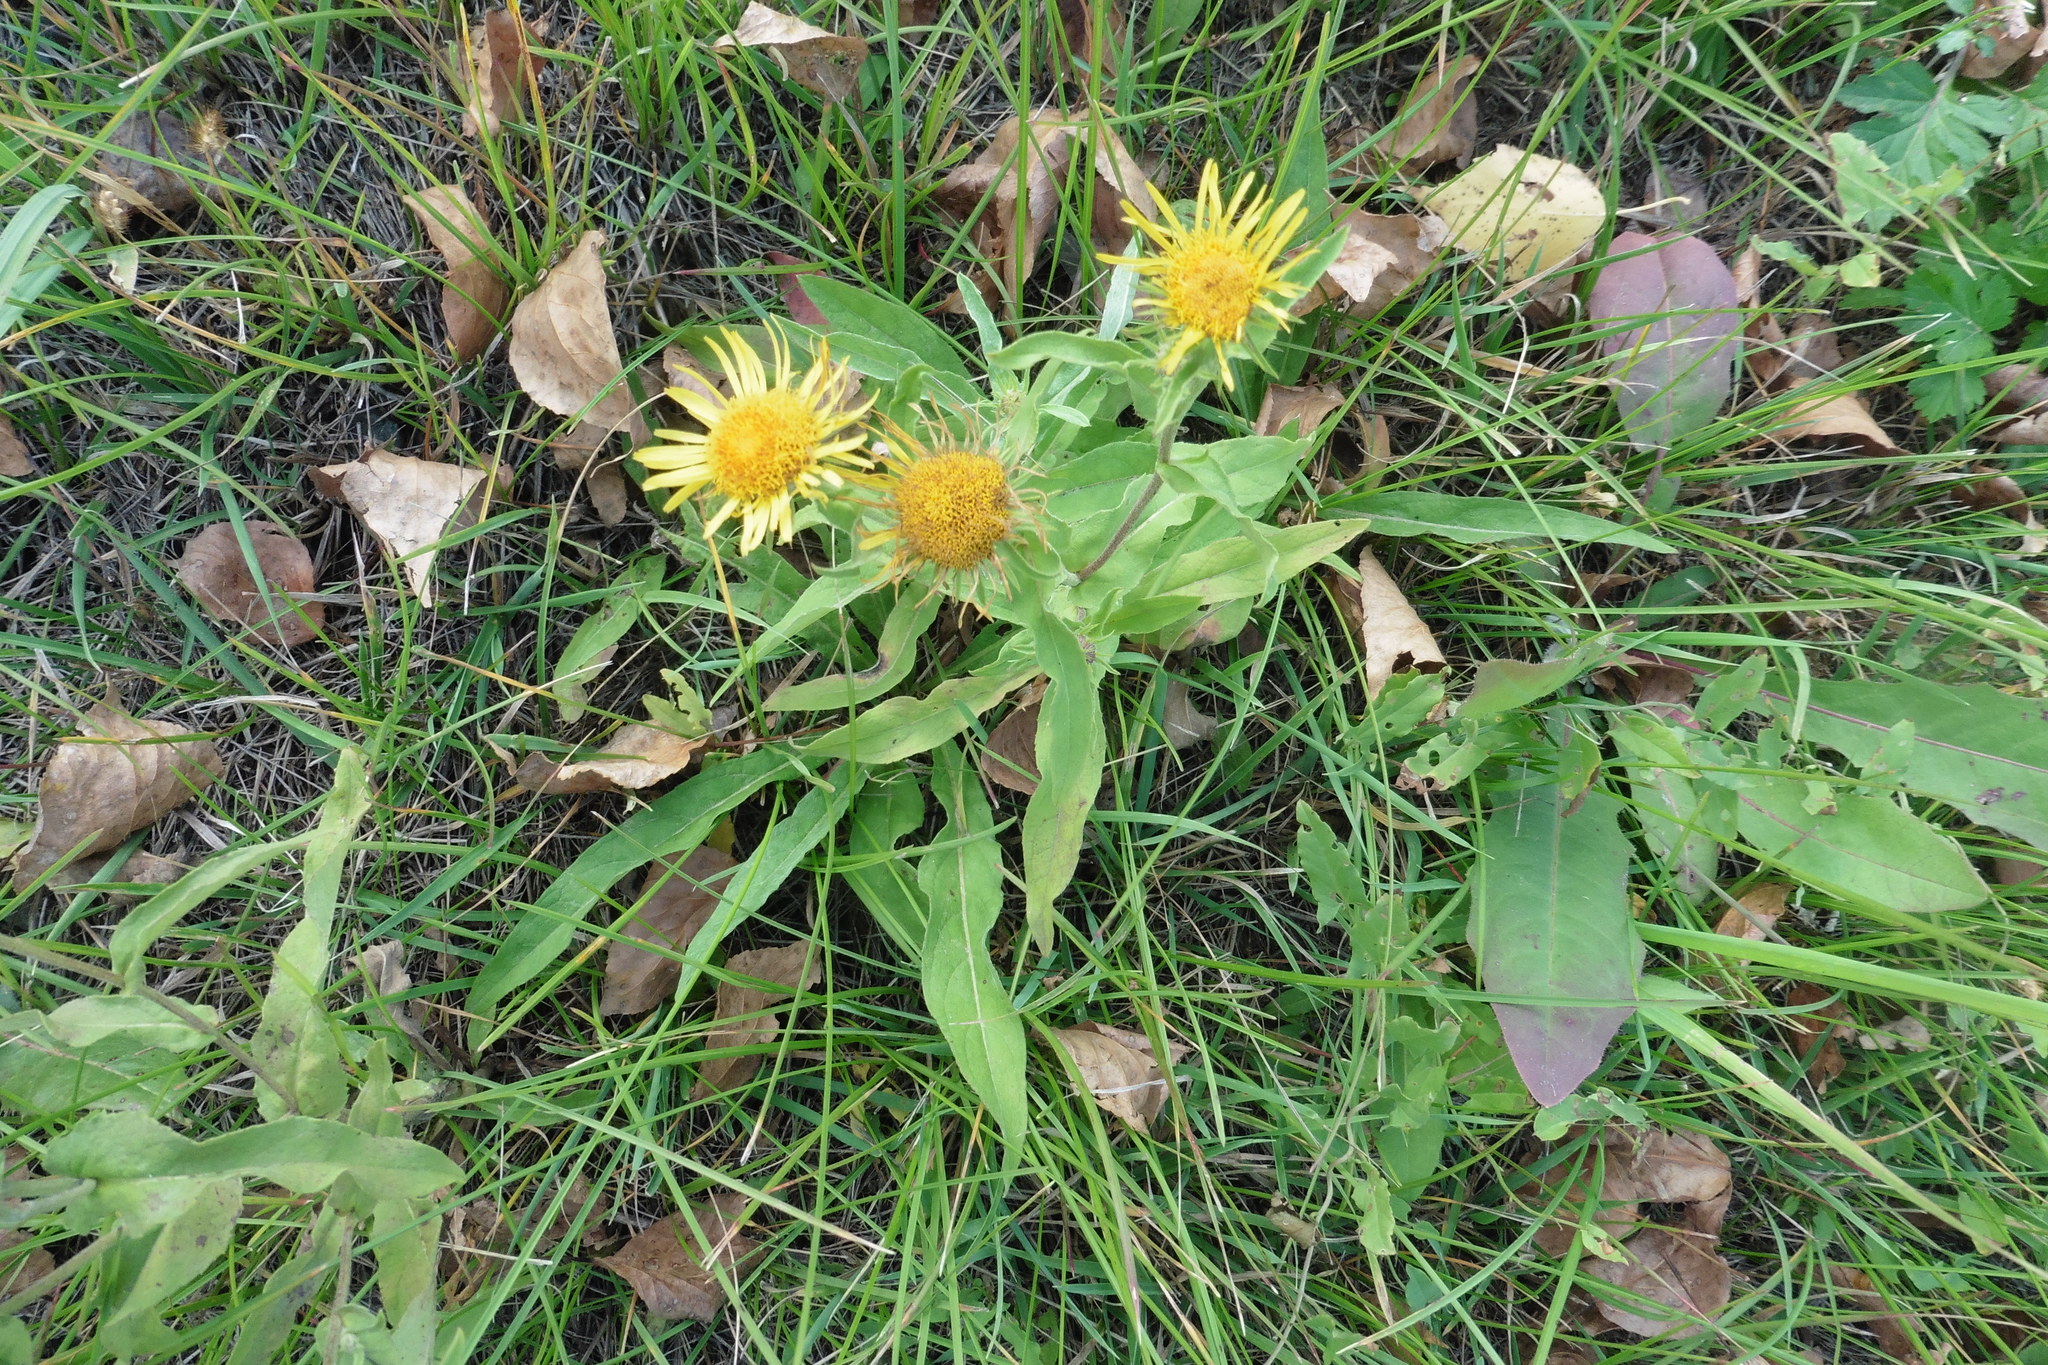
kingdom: Plantae
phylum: Tracheophyta
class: Magnoliopsida
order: Asterales
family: Asteraceae
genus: Pentanema
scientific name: Pentanema britannicum
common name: British elecampane
